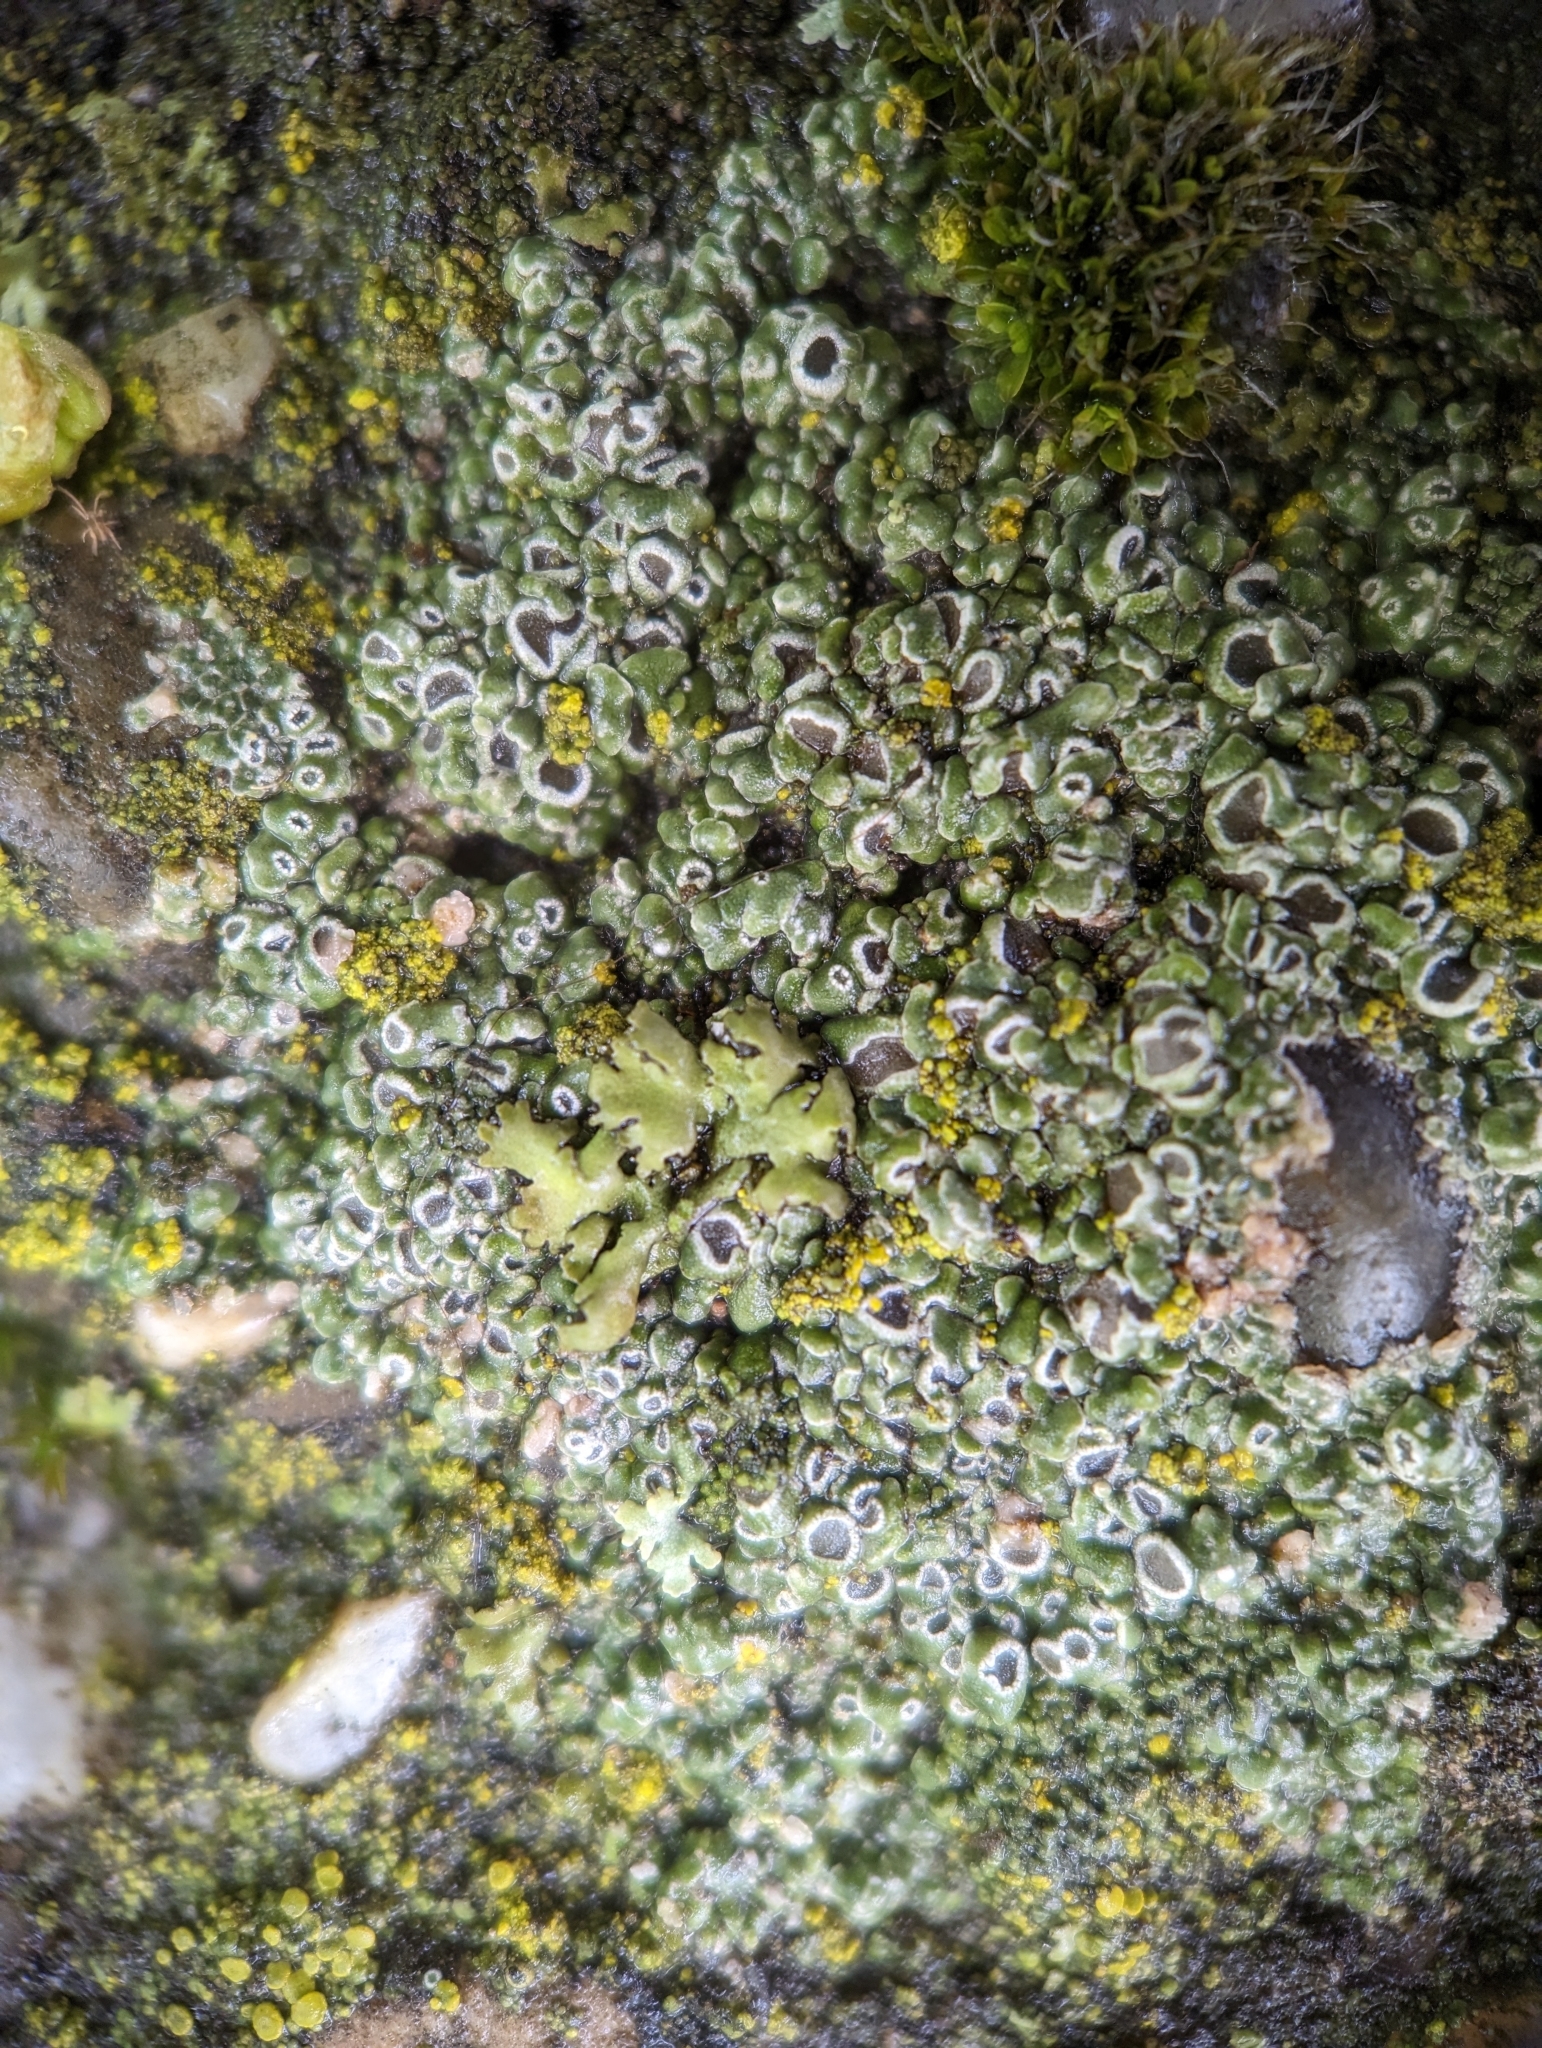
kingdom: Fungi
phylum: Ascomycota
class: Lecanoromycetes
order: Pertusariales
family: Megasporaceae
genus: Circinaria
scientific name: Circinaria contorta
